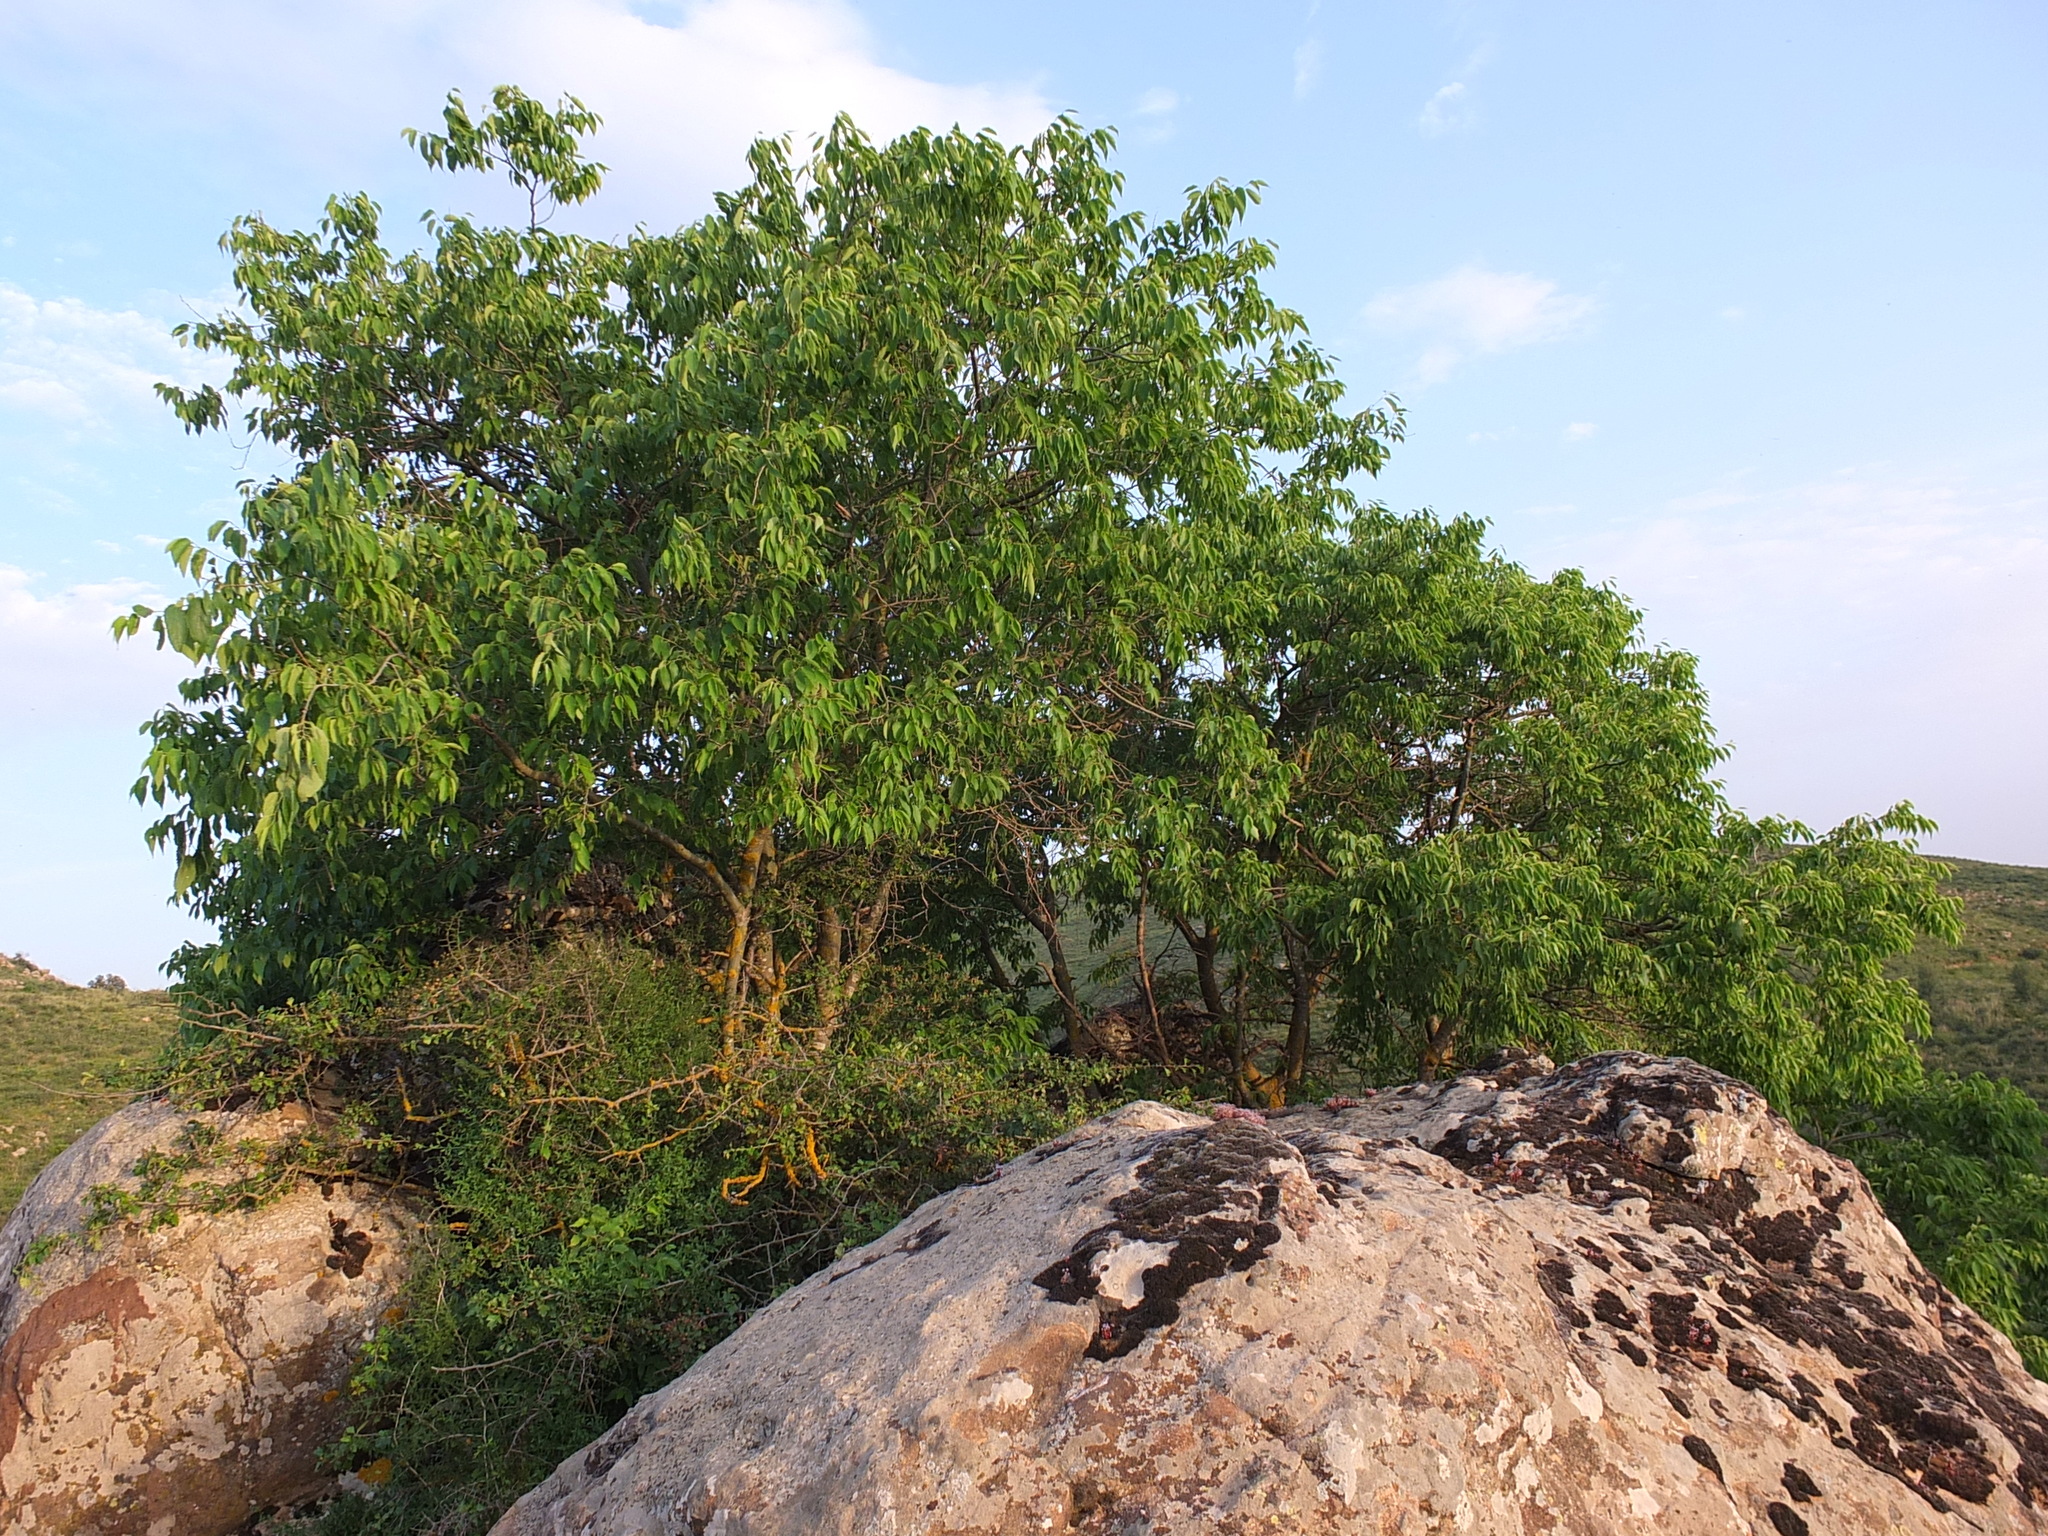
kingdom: Plantae
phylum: Tracheophyta
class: Magnoliopsida
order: Rosales
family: Cannabaceae
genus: Celtis
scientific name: Celtis australis
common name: European hackberry
